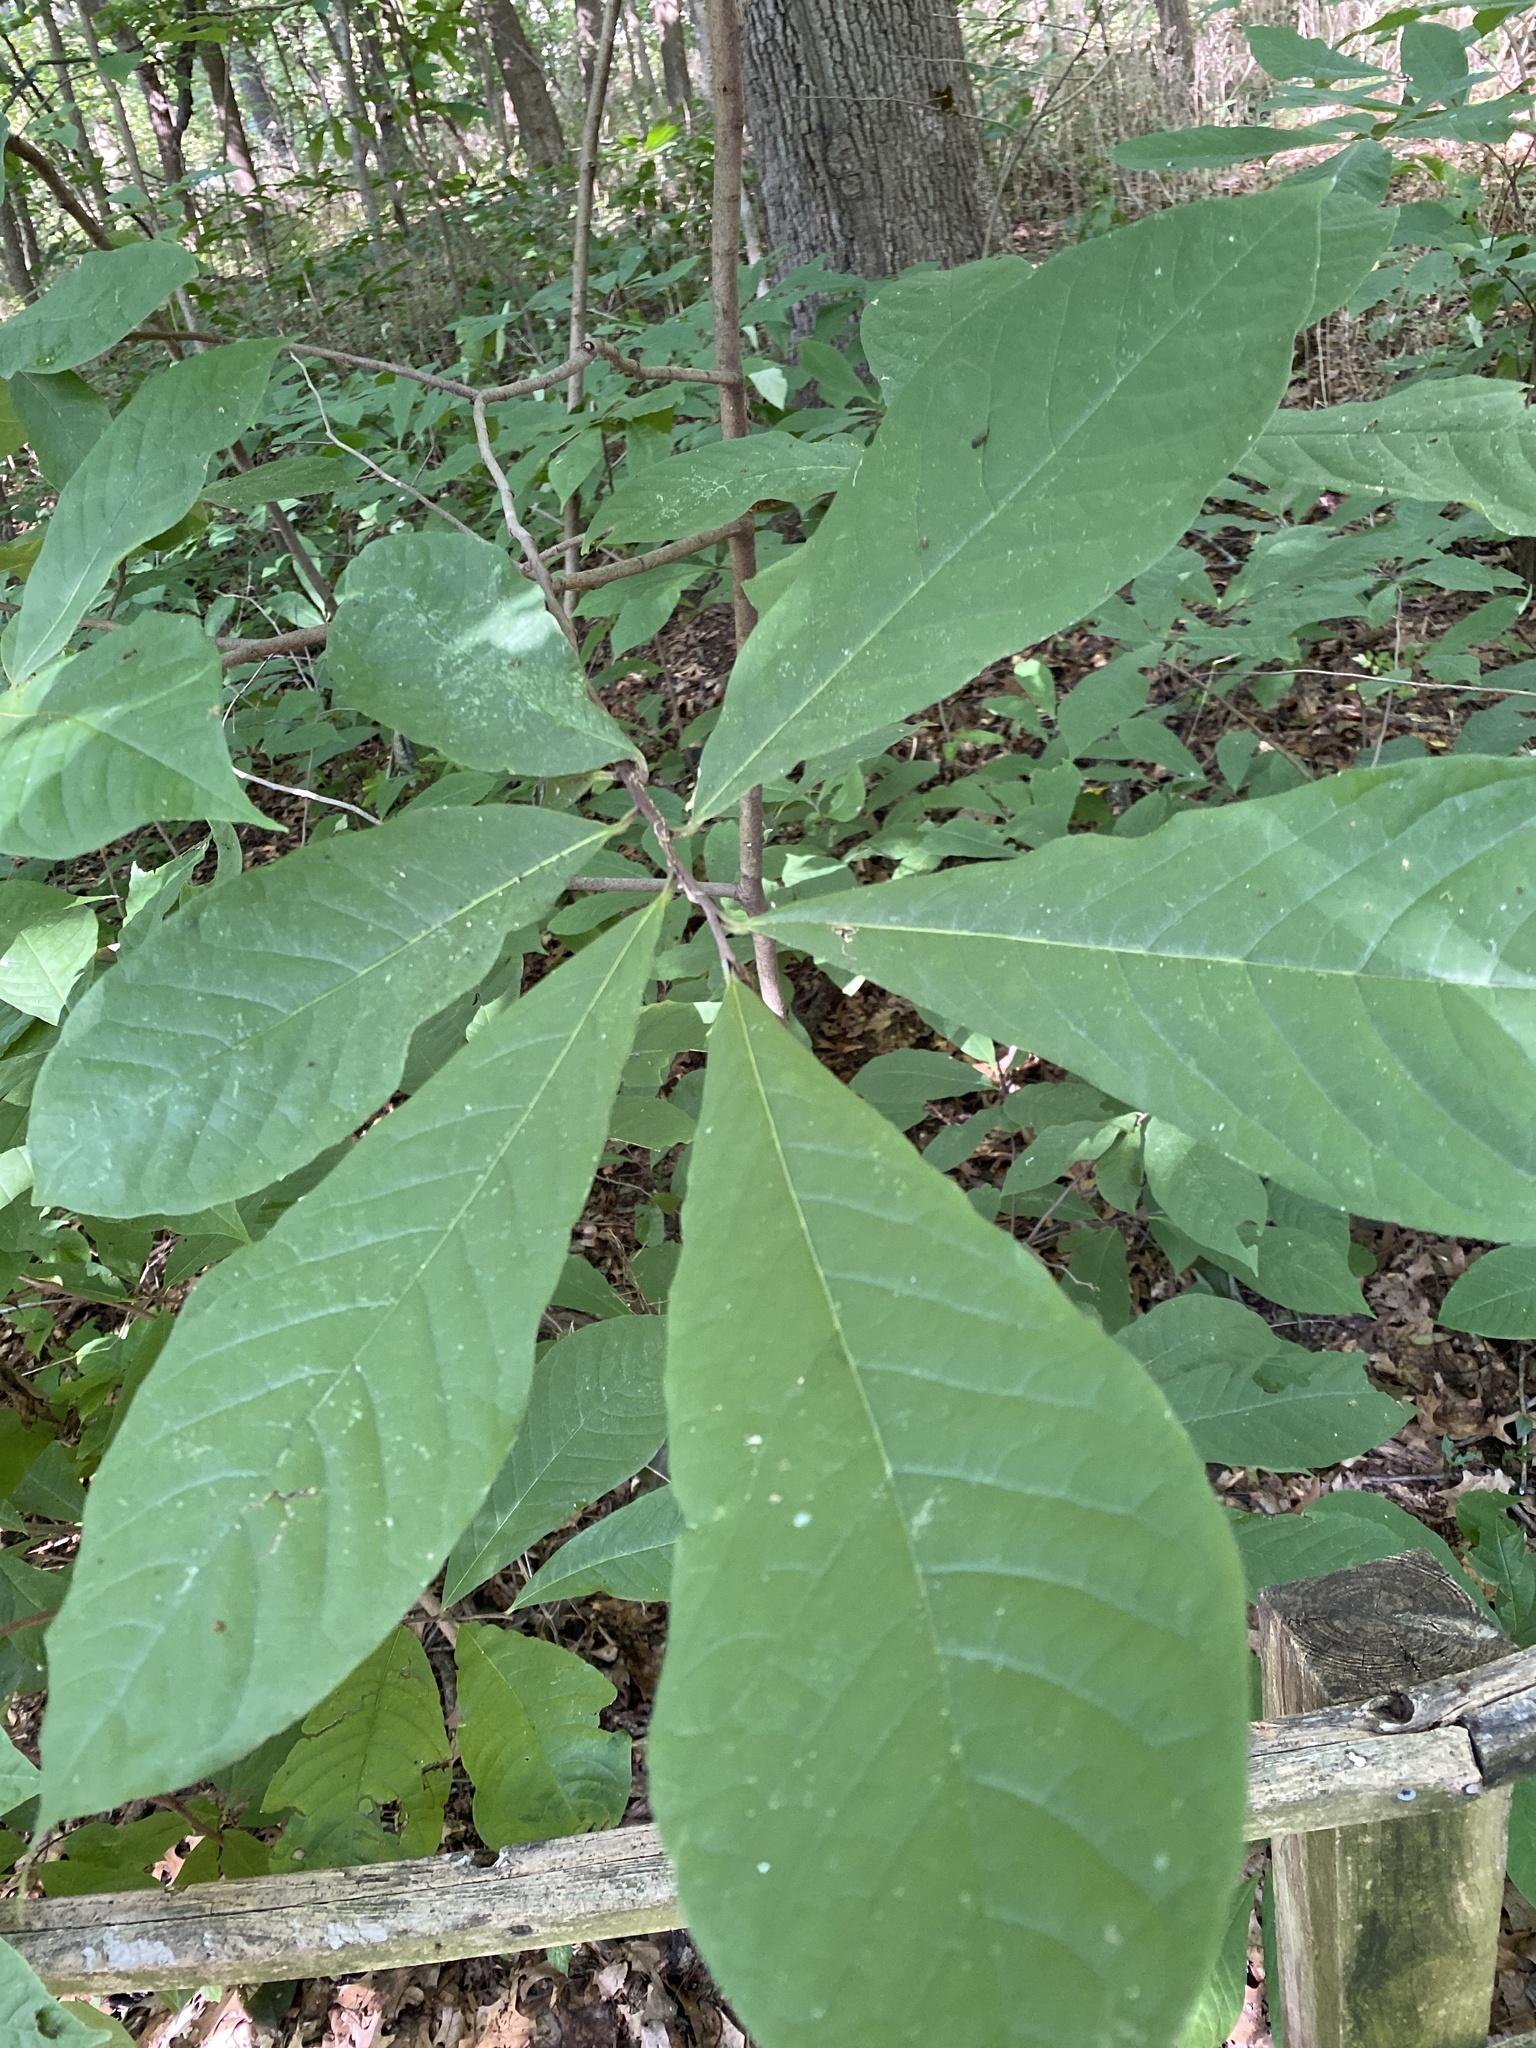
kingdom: Plantae
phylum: Tracheophyta
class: Magnoliopsida
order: Magnoliales
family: Annonaceae
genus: Asimina
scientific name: Asimina triloba
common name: Dog-banana
